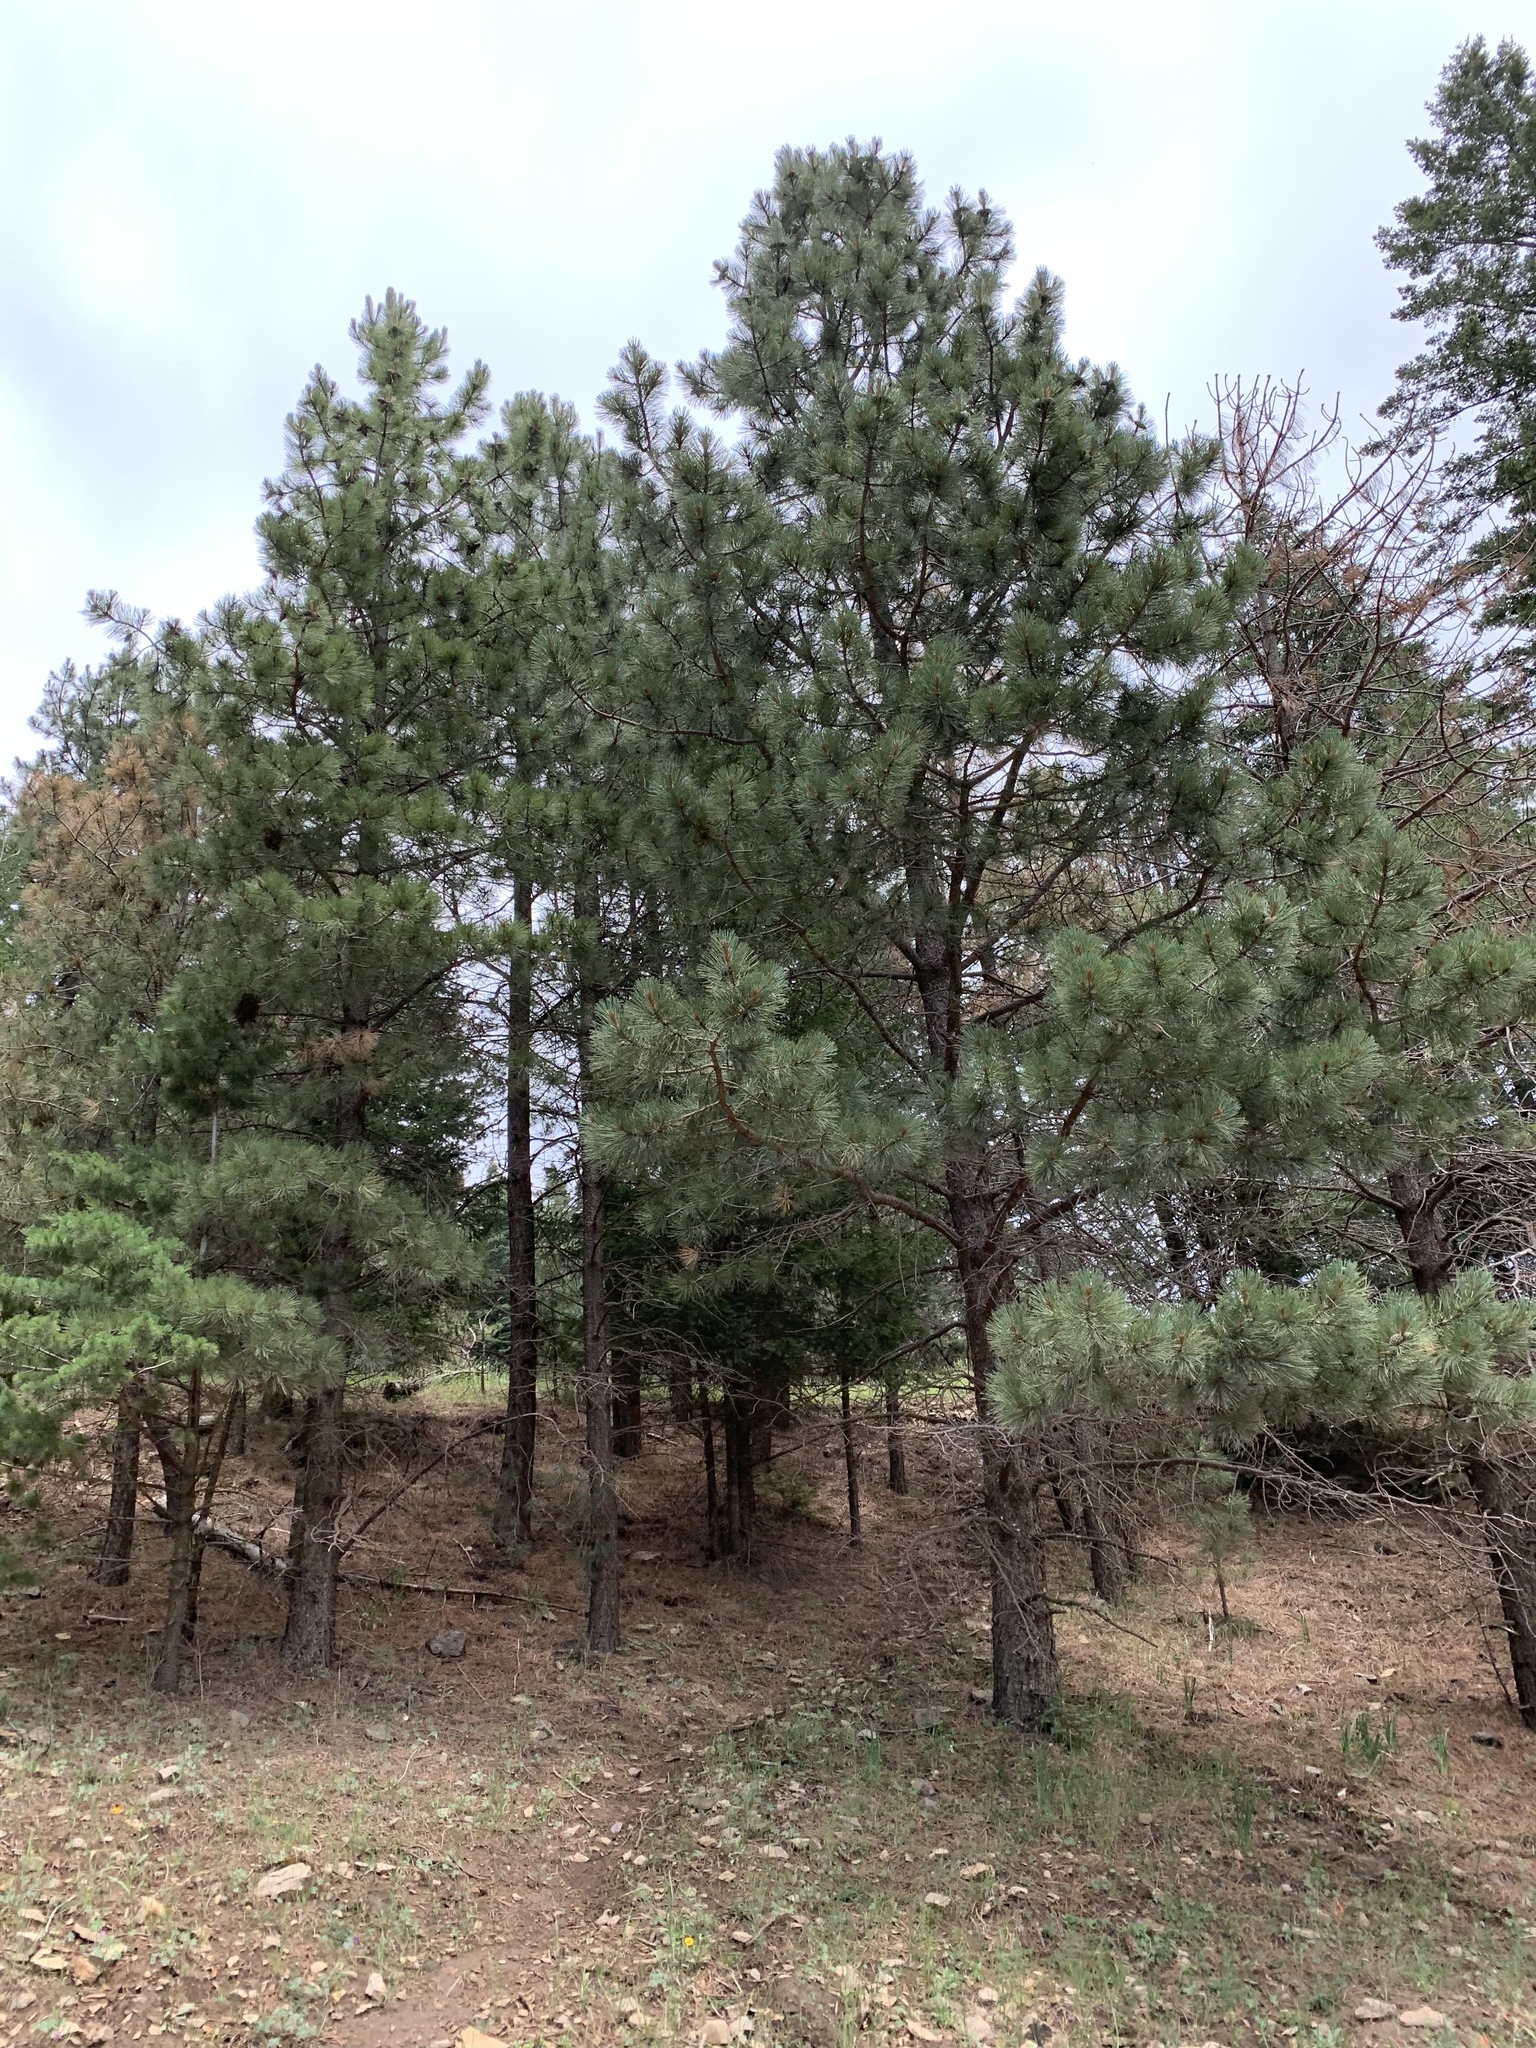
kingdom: Plantae
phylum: Tracheophyta
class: Pinopsida
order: Pinales
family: Pinaceae
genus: Pinus
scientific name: Pinus ponderosa
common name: Western yellow-pine
